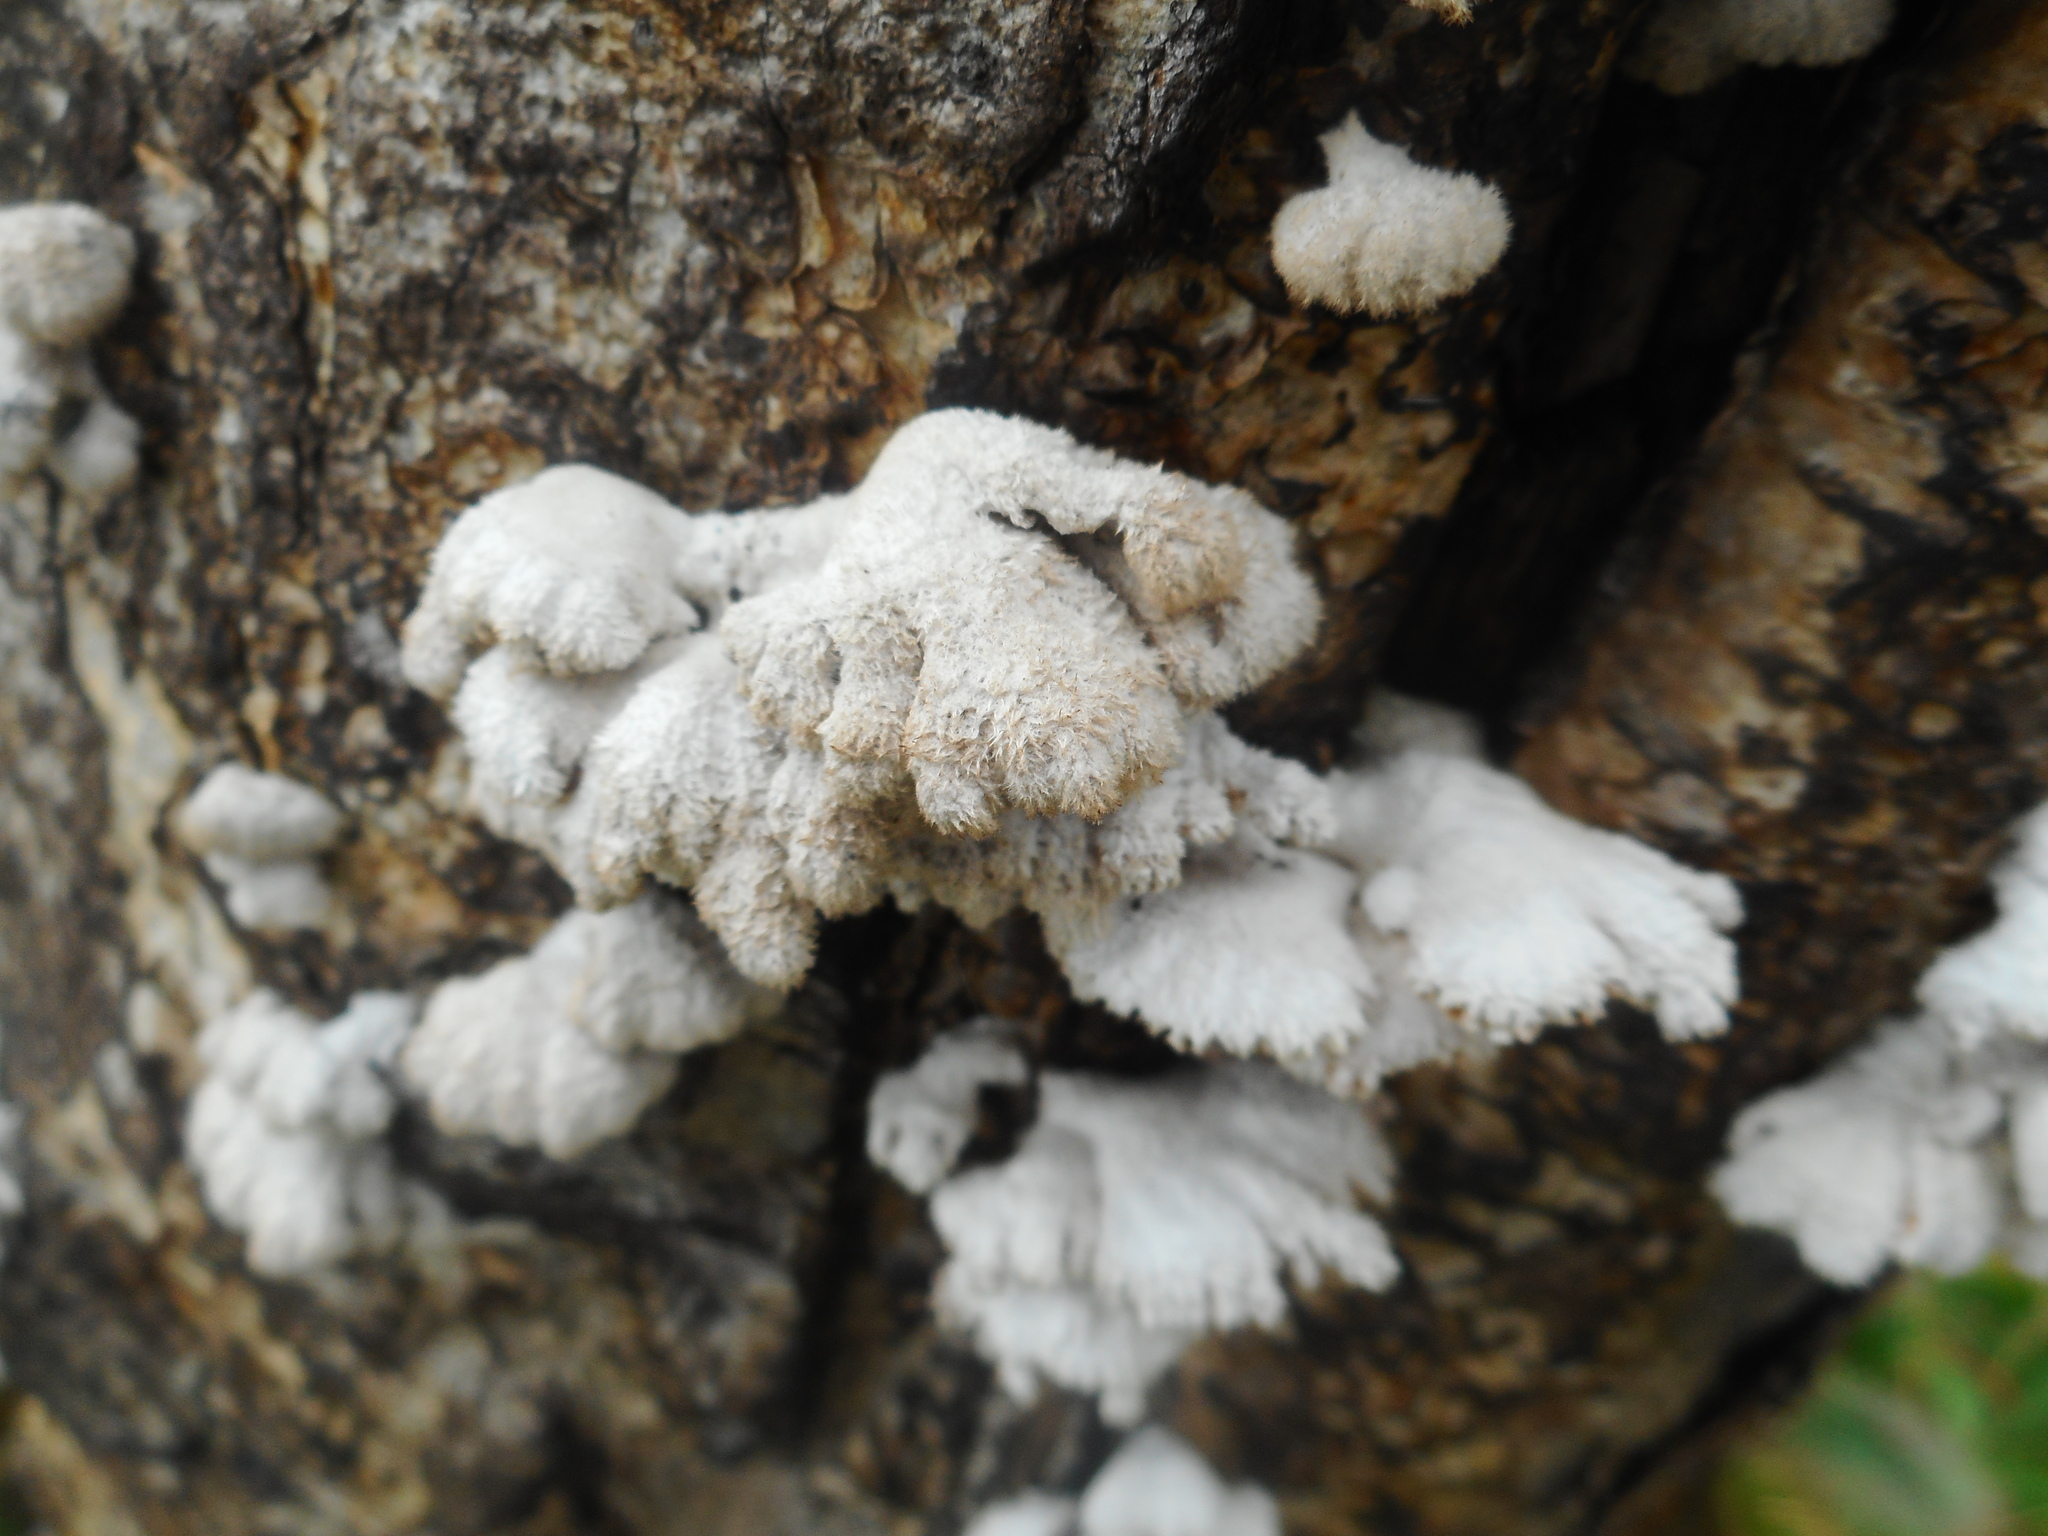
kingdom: Fungi
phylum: Basidiomycota
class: Agaricomycetes
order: Agaricales
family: Schizophyllaceae
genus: Schizophyllum
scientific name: Schizophyllum commune
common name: Common porecrust
